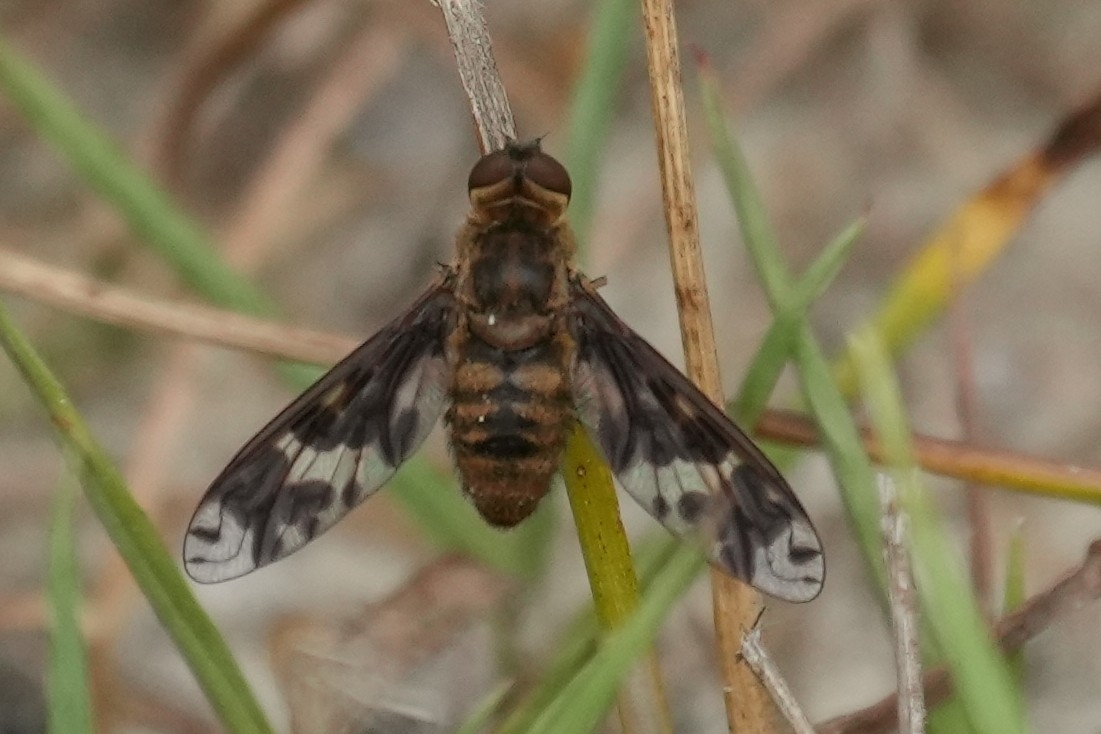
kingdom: Animalia
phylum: Arthropoda
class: Insecta
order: Diptera
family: Bombyliidae
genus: Dipalta
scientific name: Dipalta banksi
